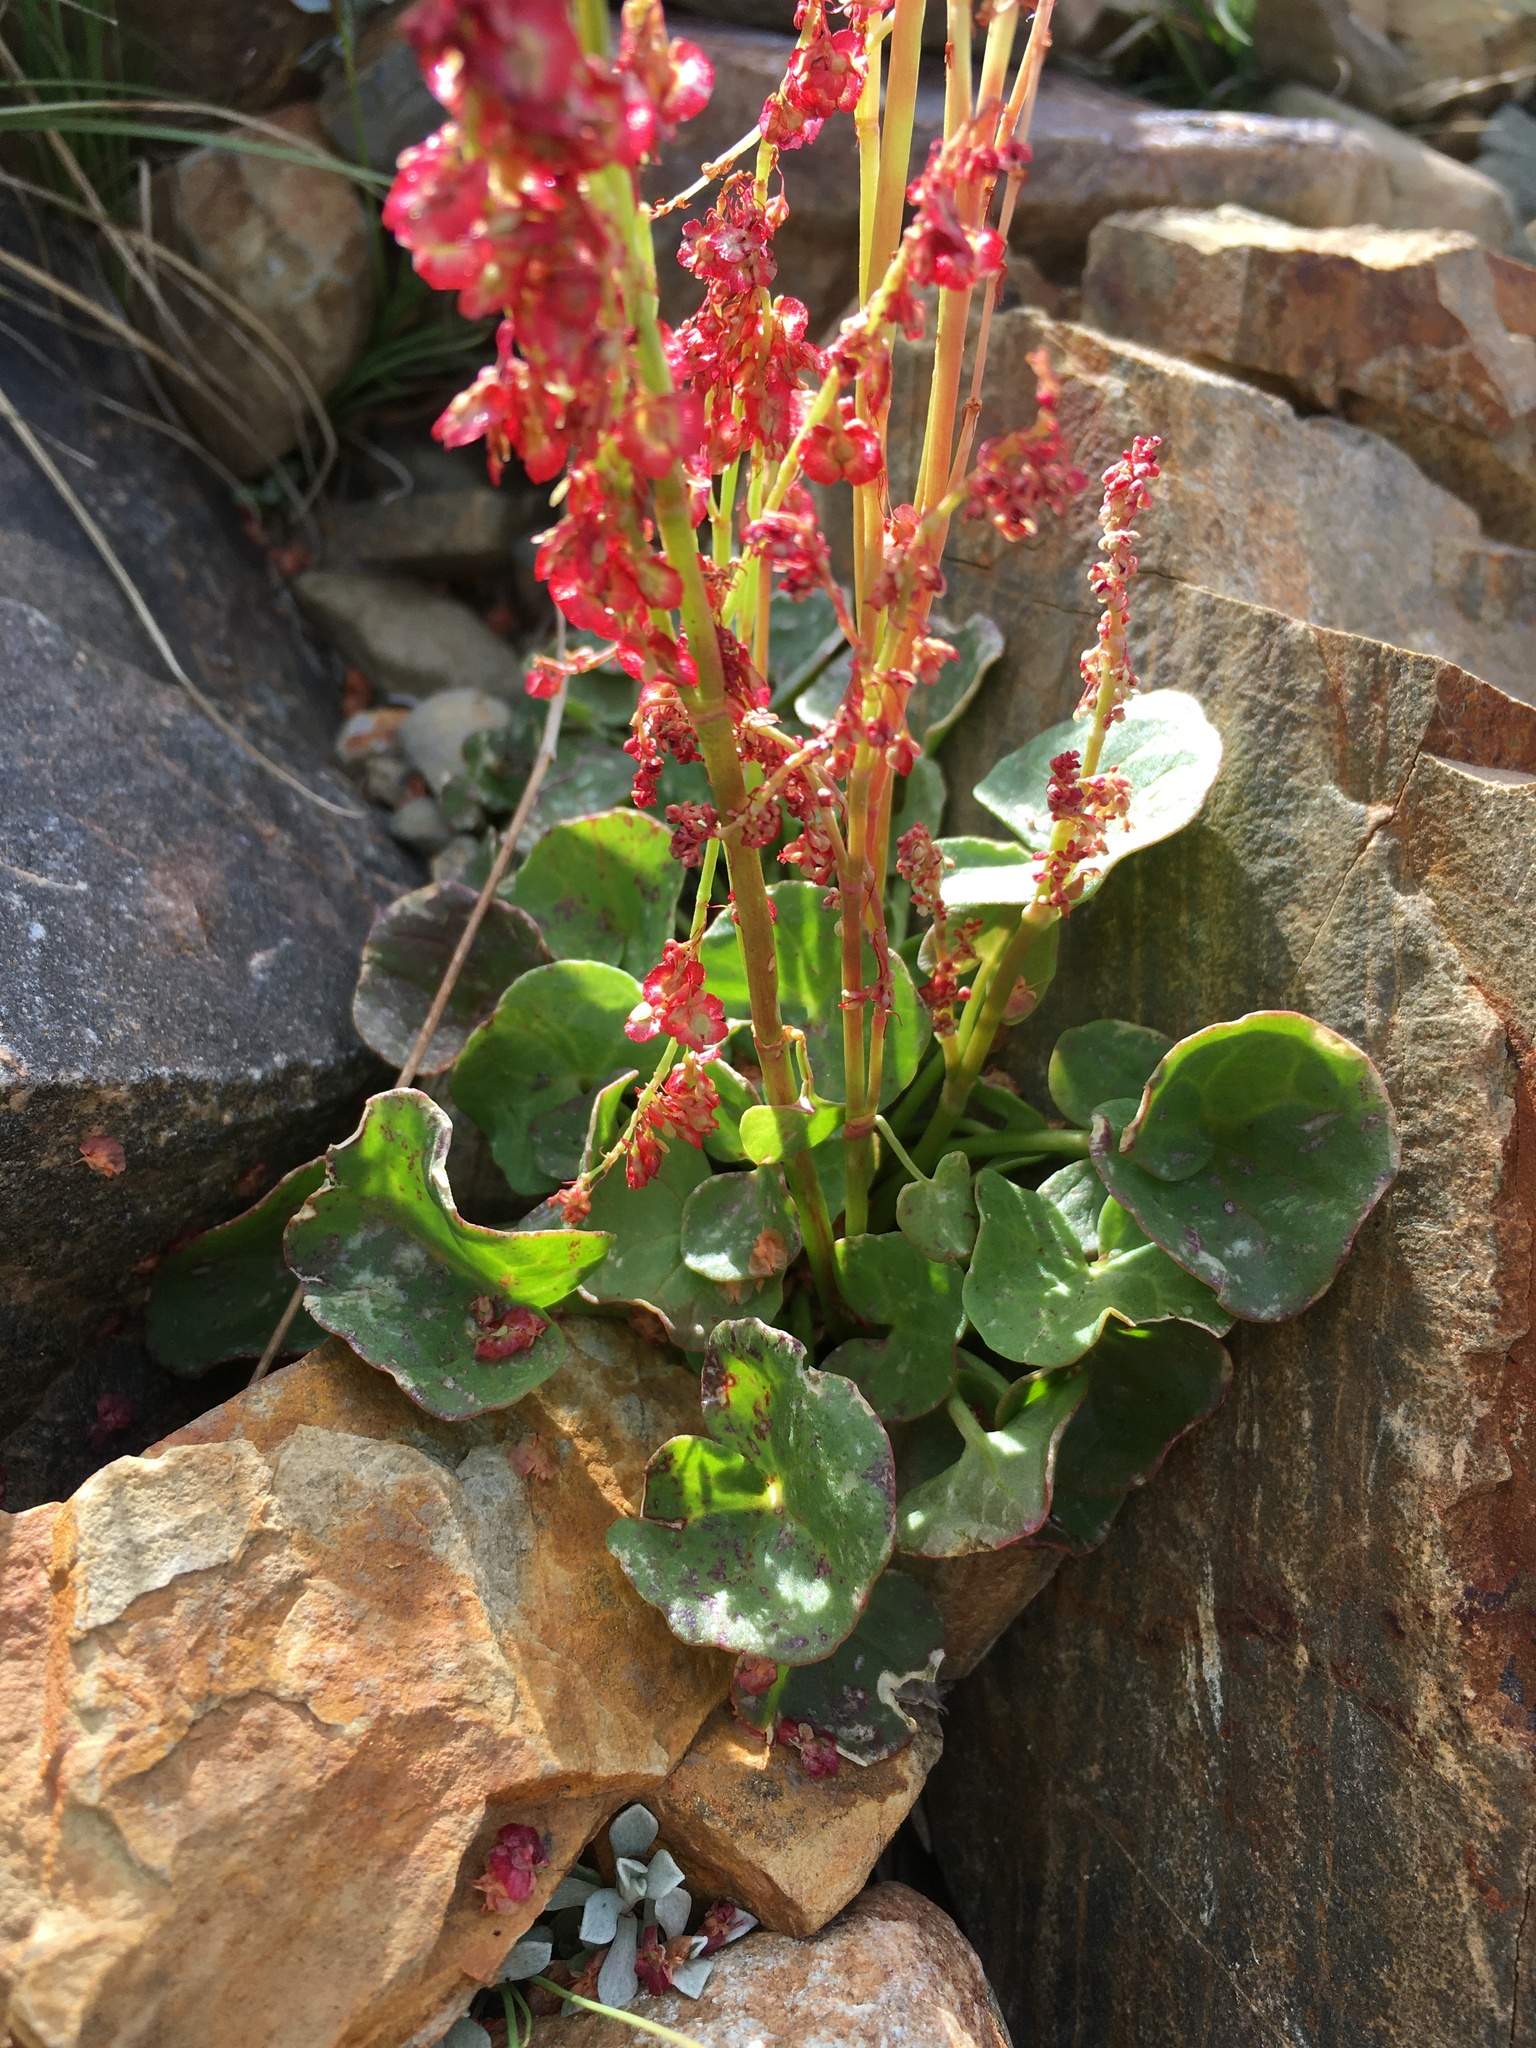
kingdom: Plantae
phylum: Tracheophyta
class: Magnoliopsida
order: Caryophyllales
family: Polygonaceae
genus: Oxyria
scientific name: Oxyria digyna
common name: Alpine mountain-sorrel
